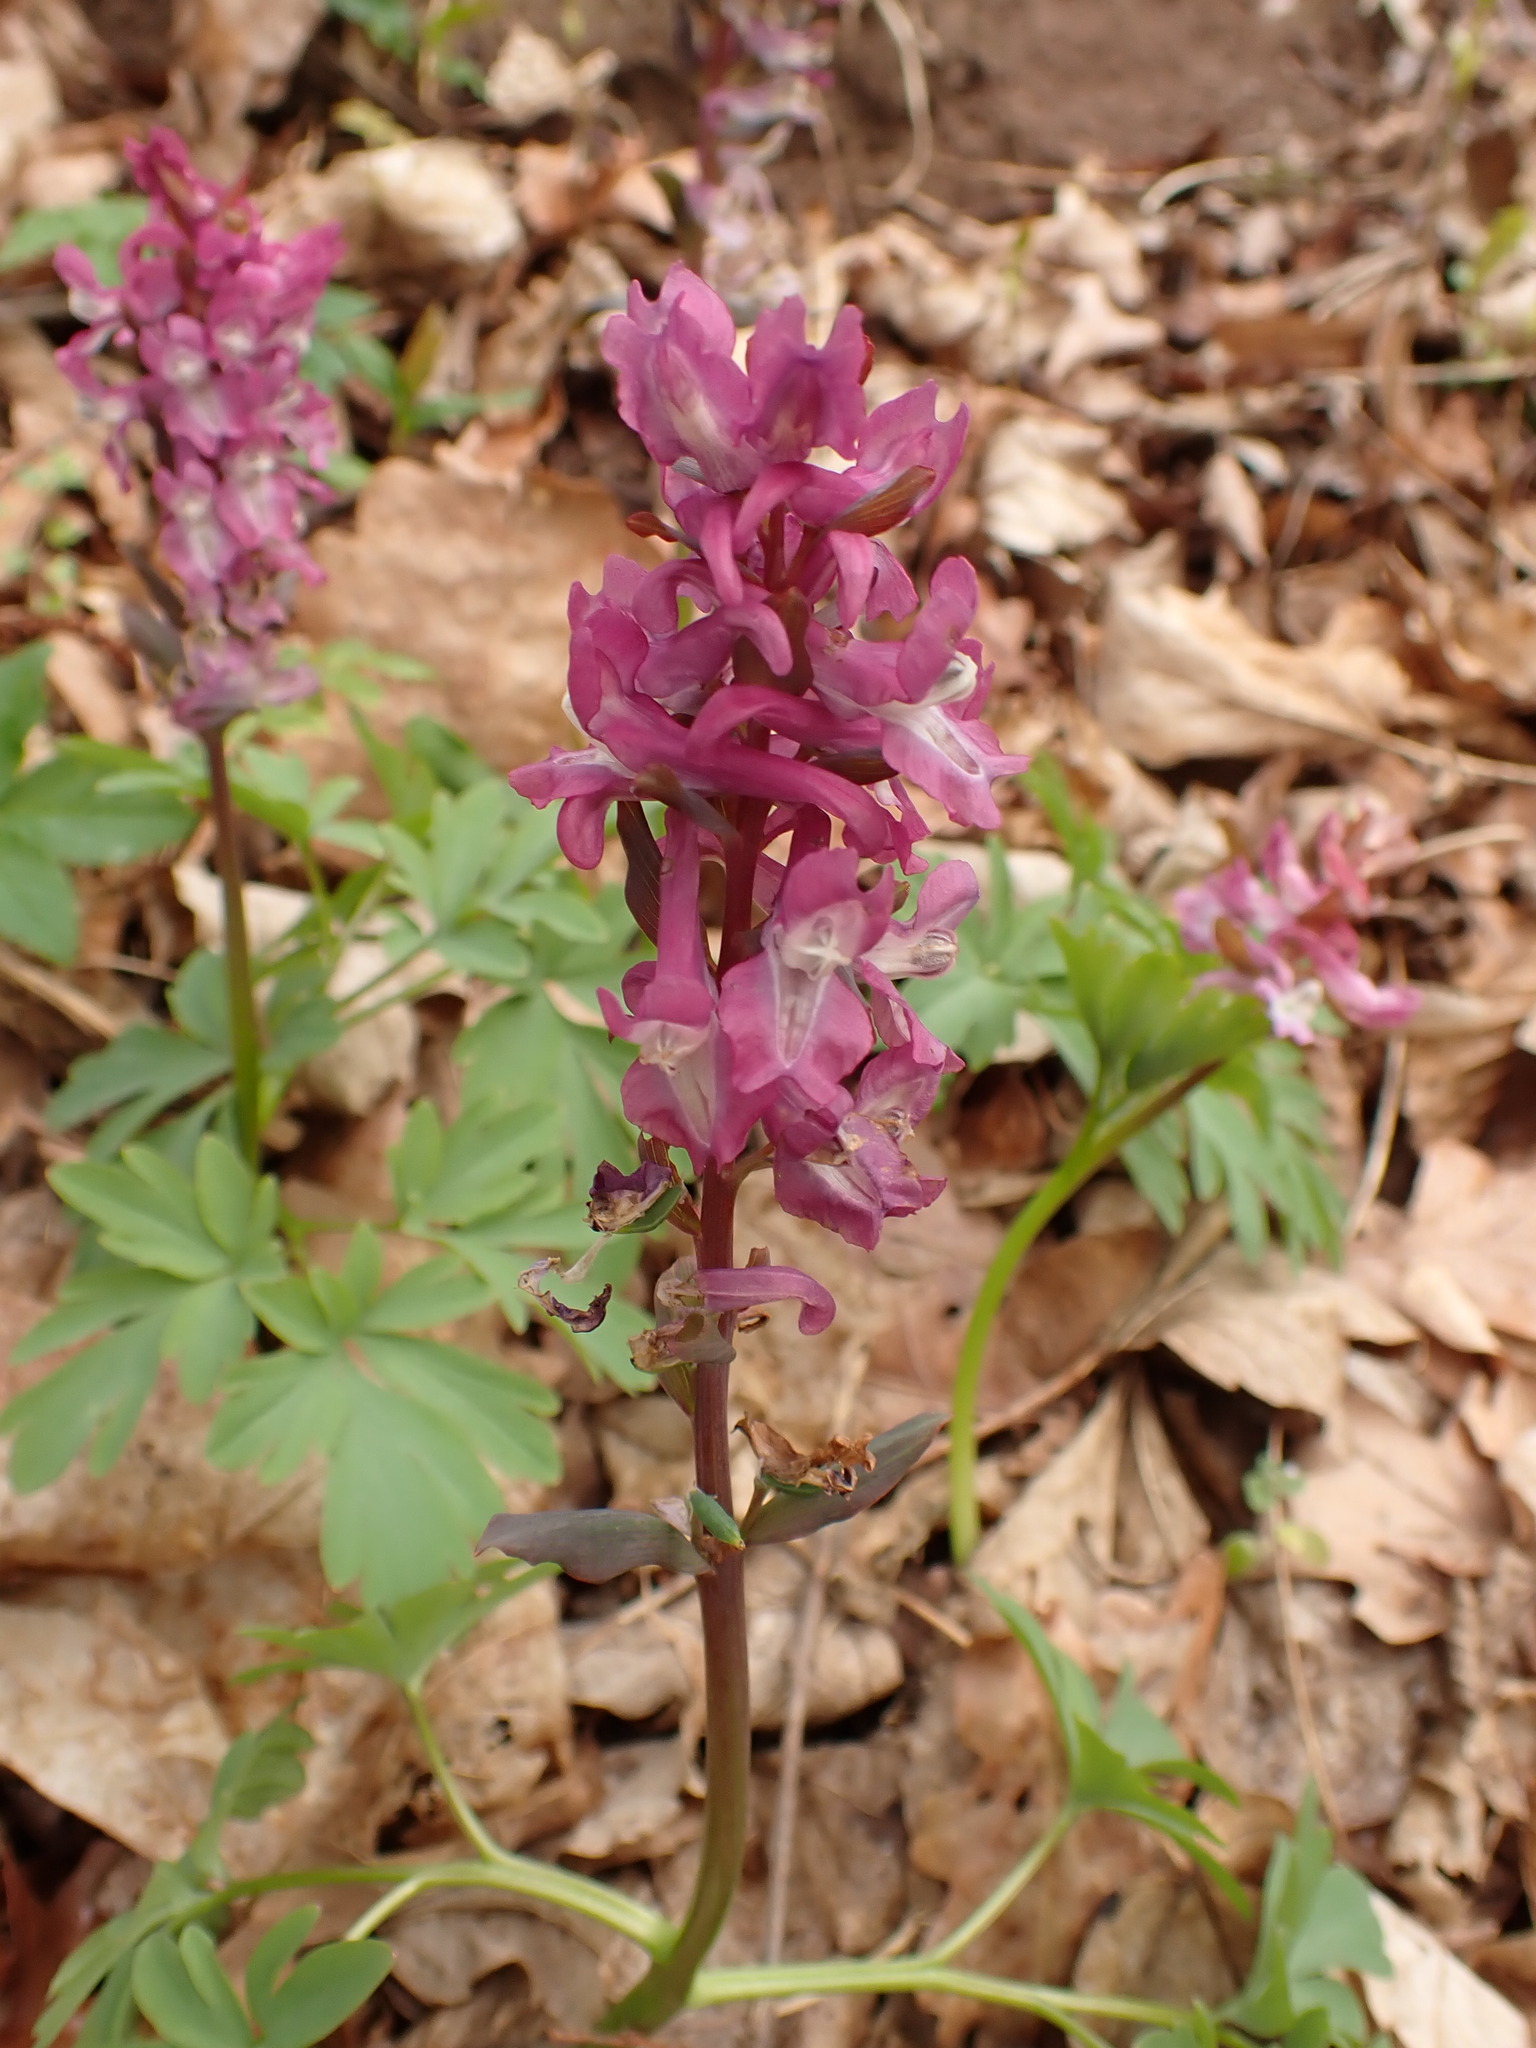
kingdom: Plantae
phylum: Tracheophyta
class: Magnoliopsida
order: Ranunculales
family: Papaveraceae
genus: Corydalis
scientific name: Corydalis cava
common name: Hollowroot
